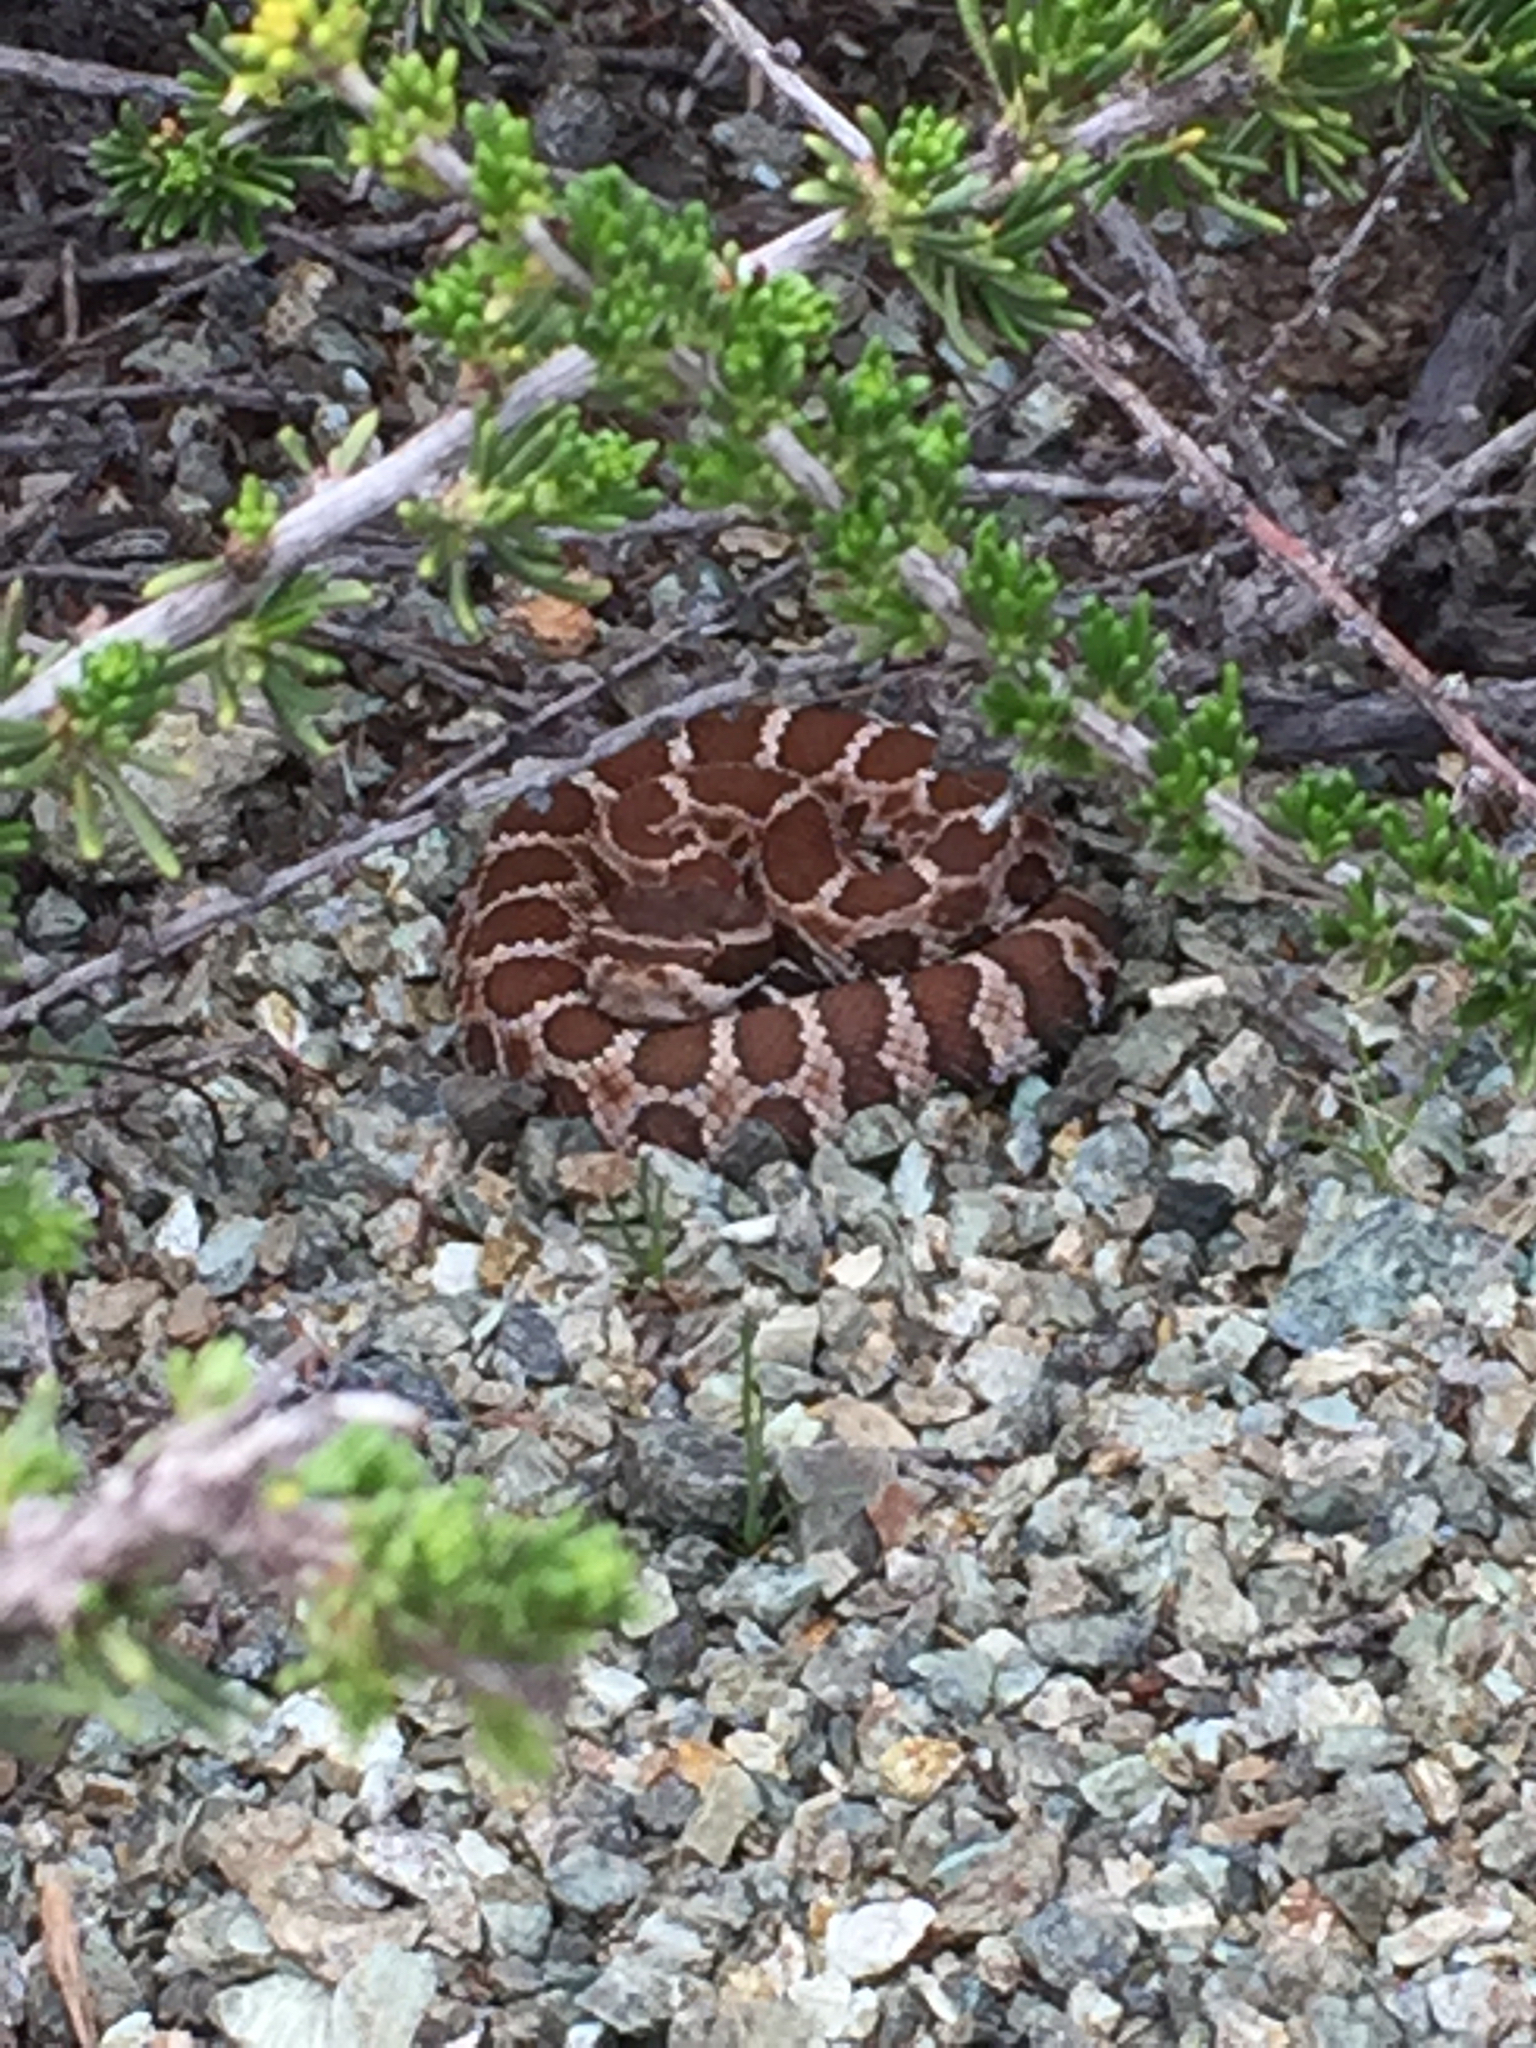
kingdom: Animalia
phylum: Chordata
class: Squamata
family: Viperidae
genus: Crotalus
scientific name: Crotalus oreganus
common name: Abyssus
